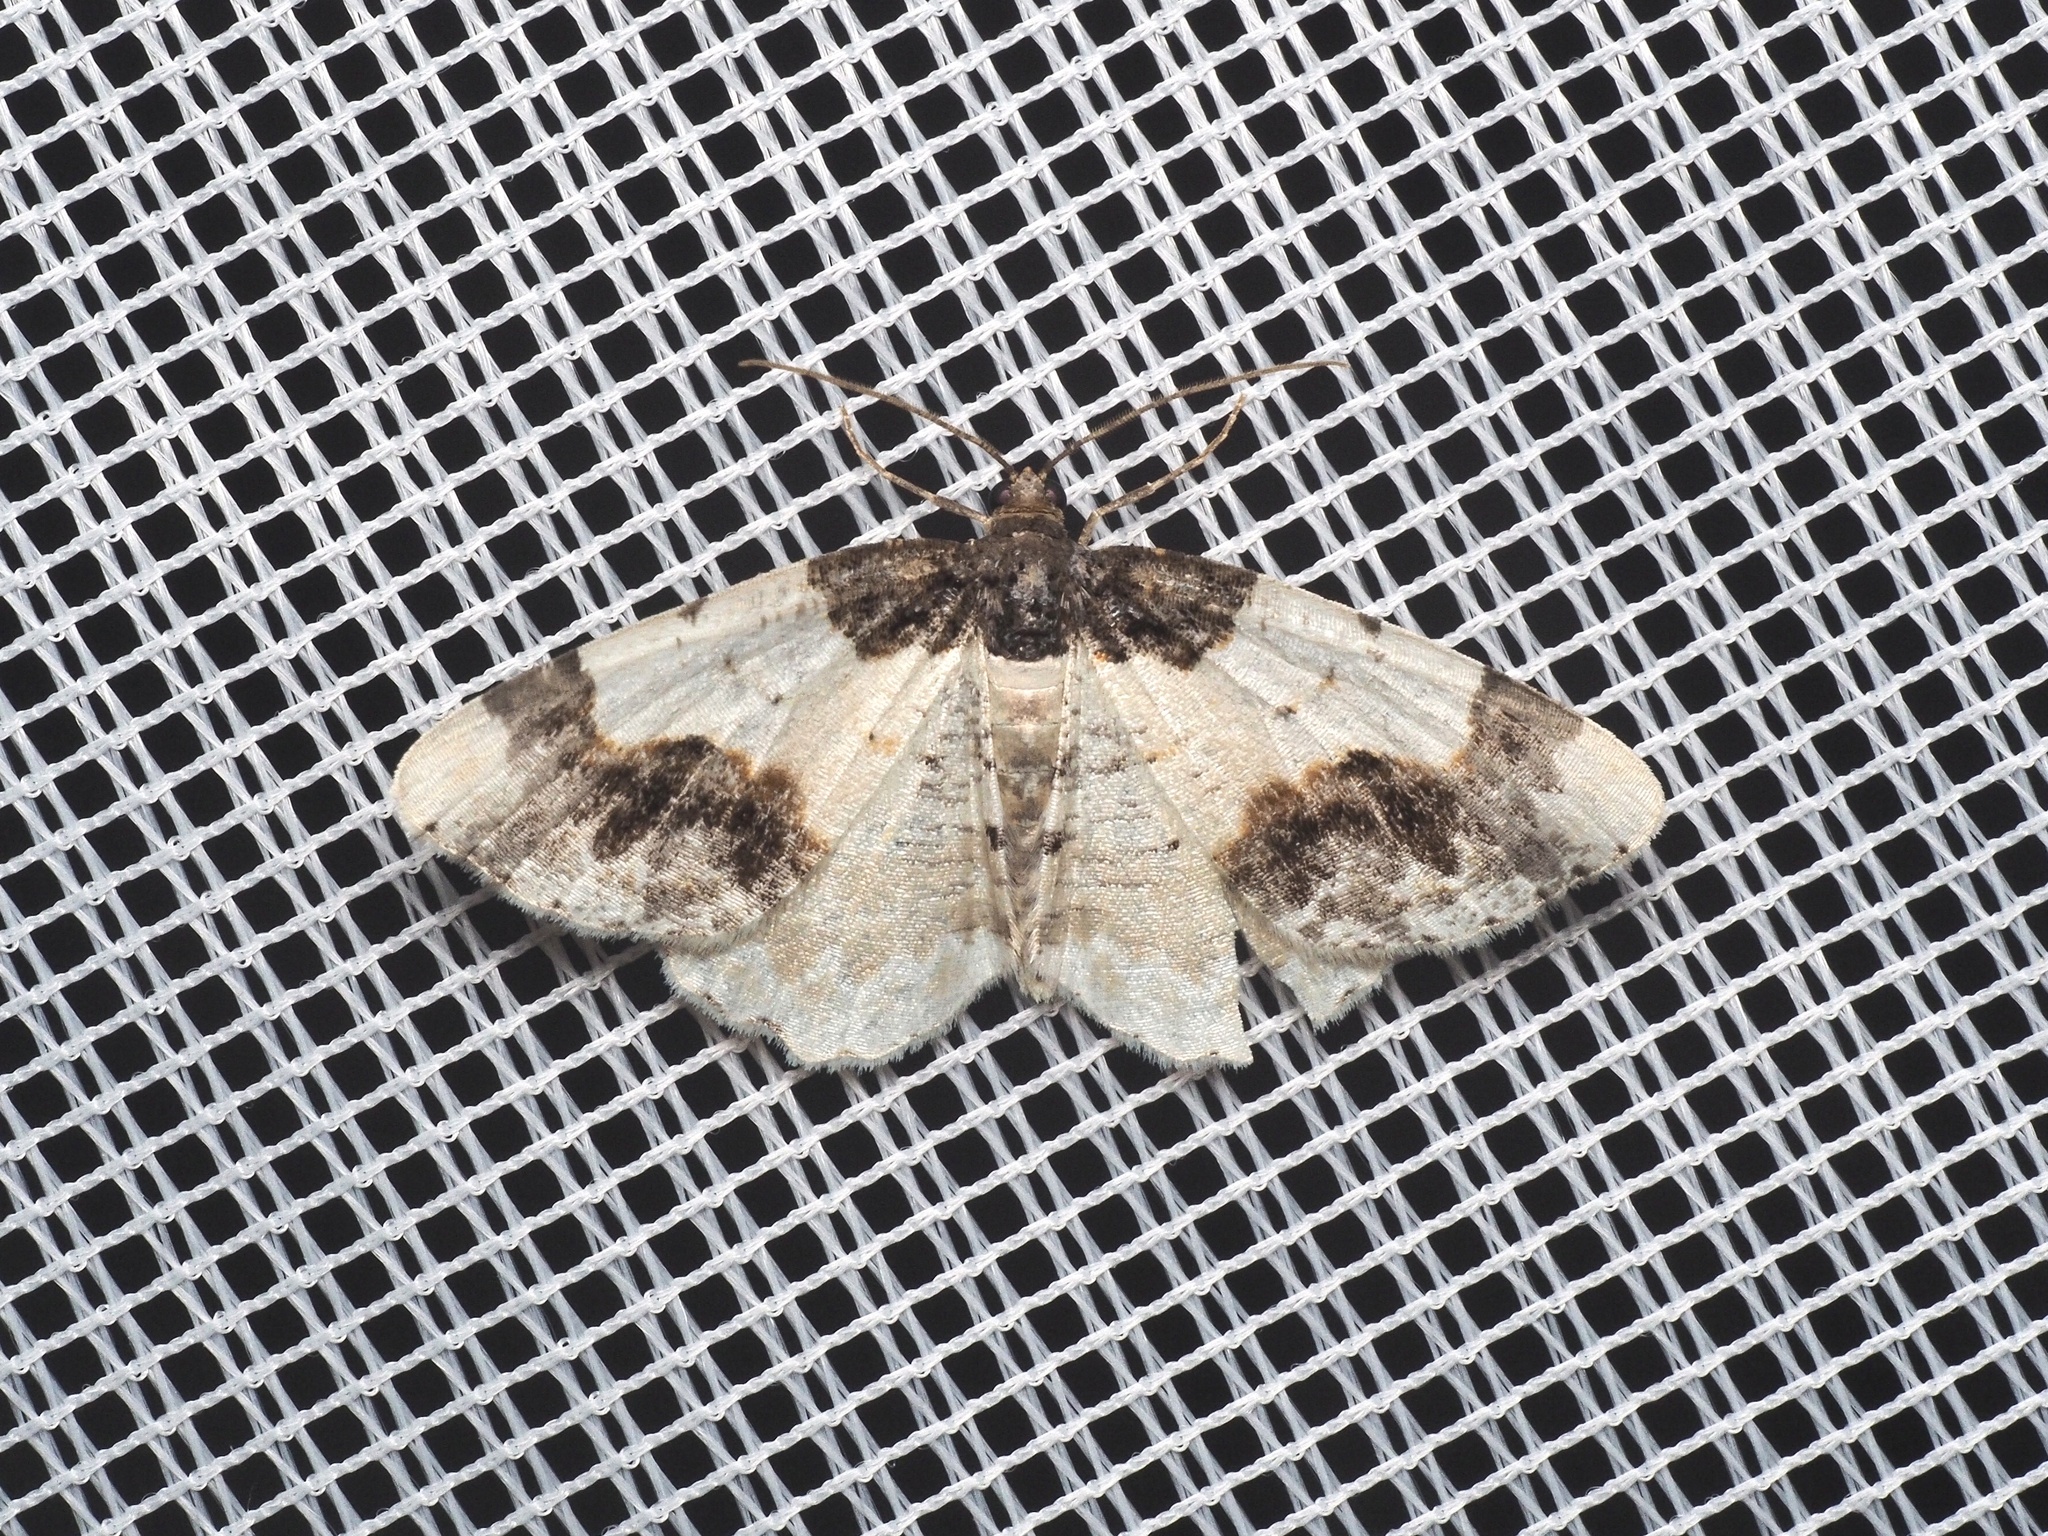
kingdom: Animalia
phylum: Arthropoda
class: Insecta
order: Lepidoptera
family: Geometridae
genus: Ligdia
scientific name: Ligdia adustata
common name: Scorched carpet
